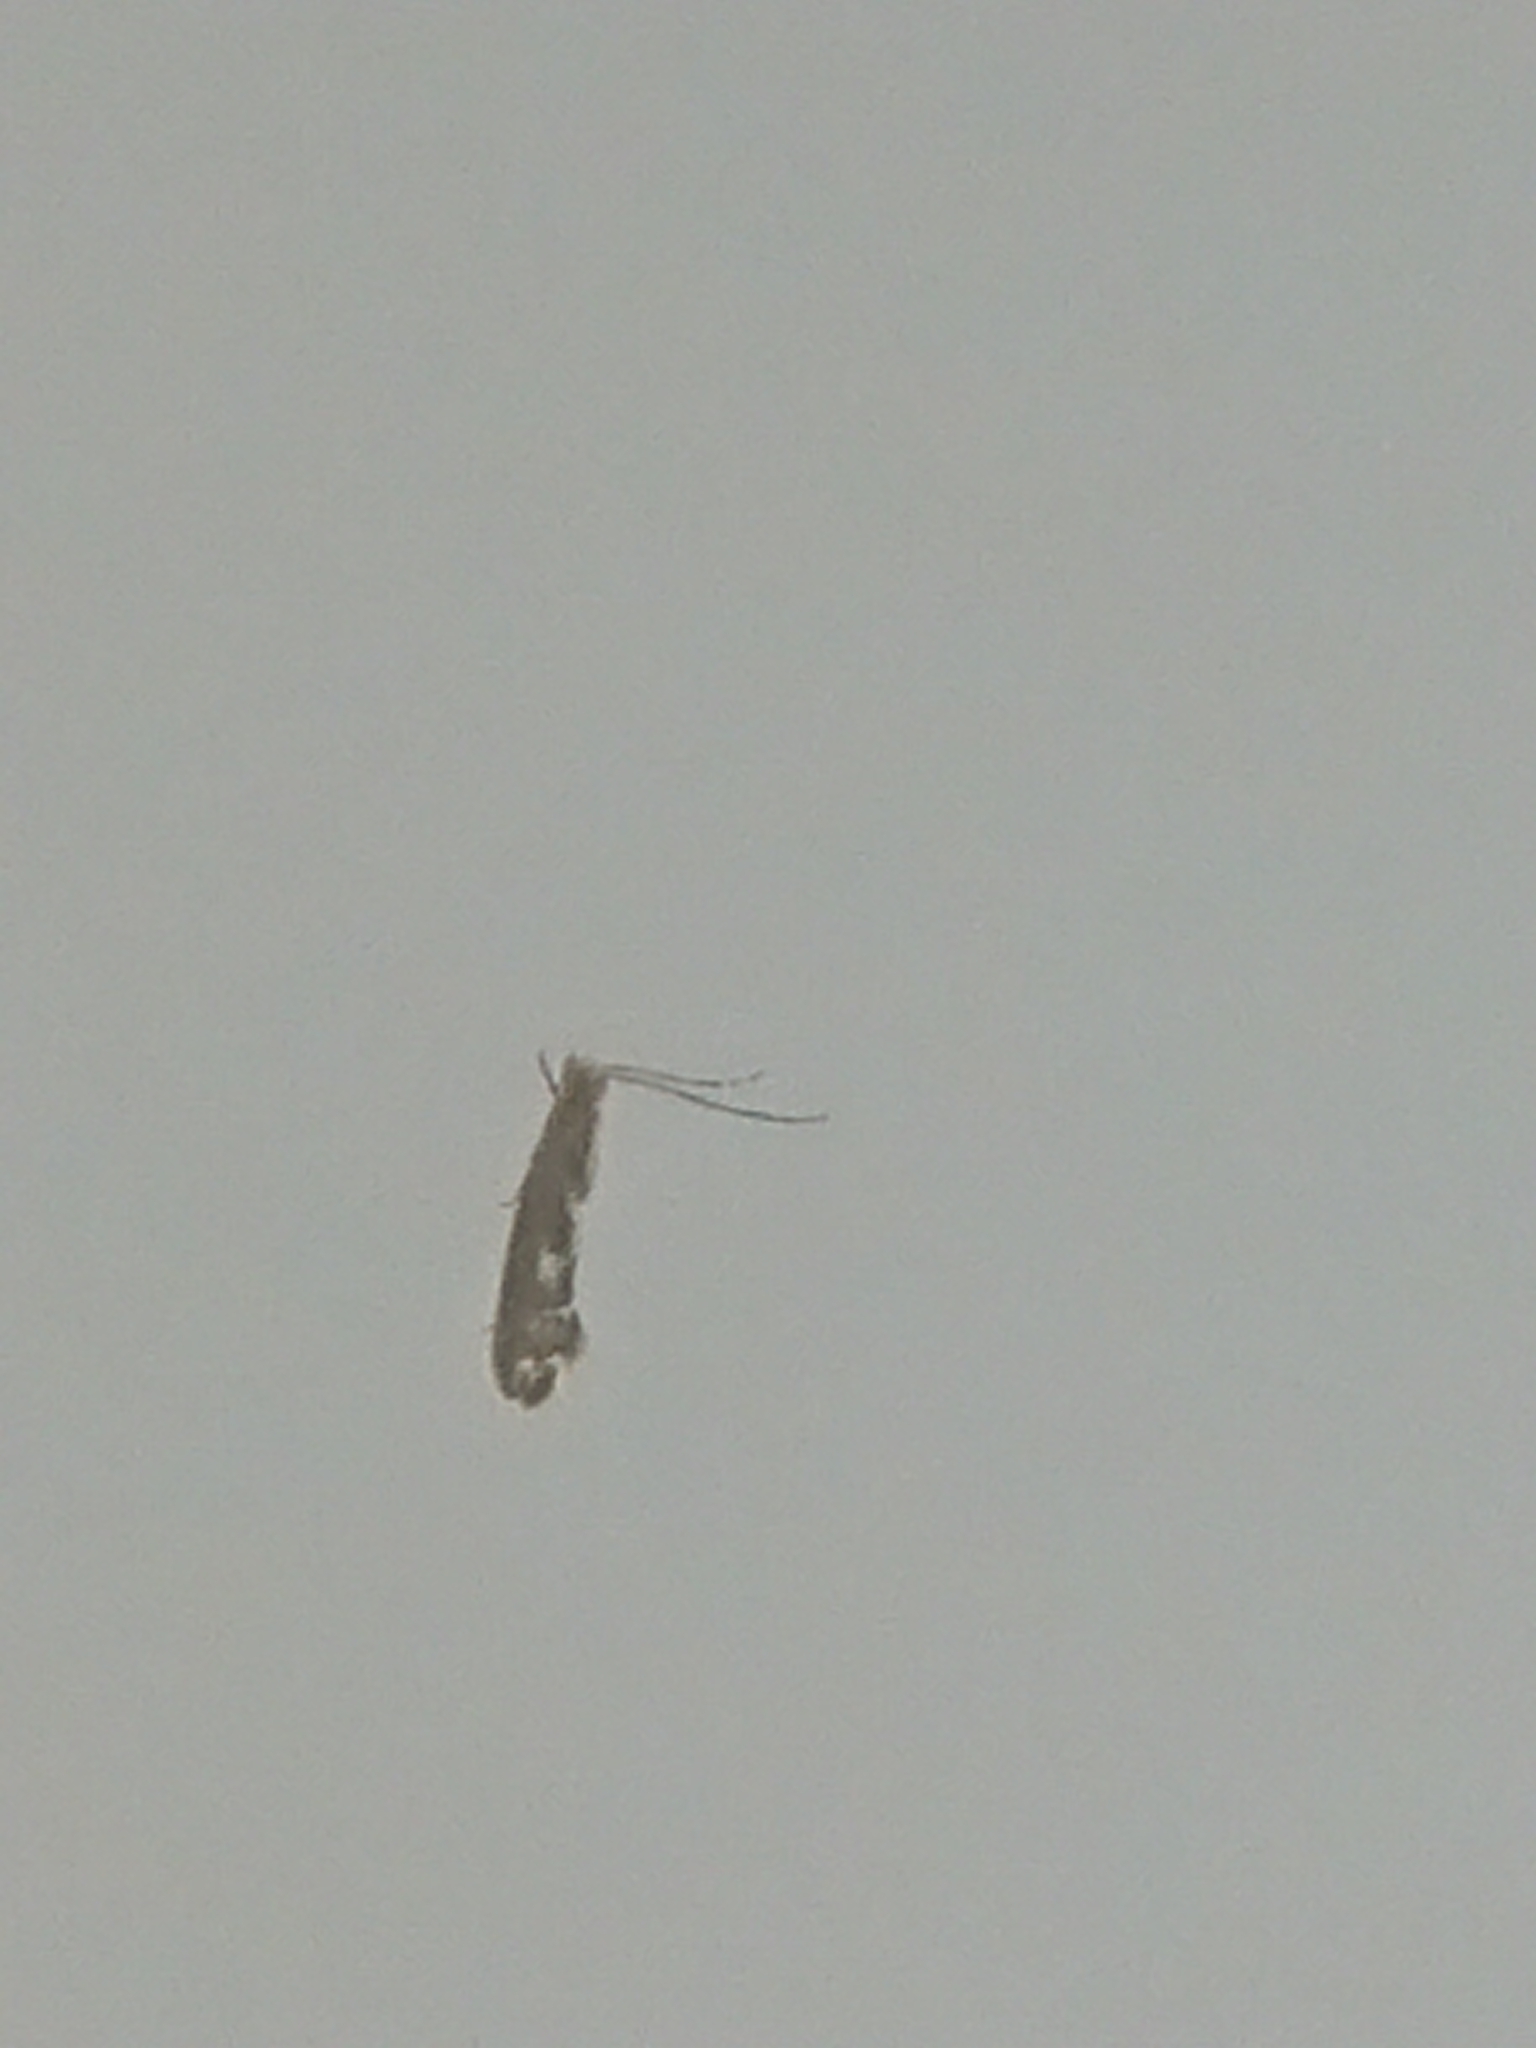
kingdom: Animalia
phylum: Arthropoda
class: Insecta
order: Lepidoptera
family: Dryadaulidae
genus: Dryadaula
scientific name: Dryadaula pactolia
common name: Cellar clothes
